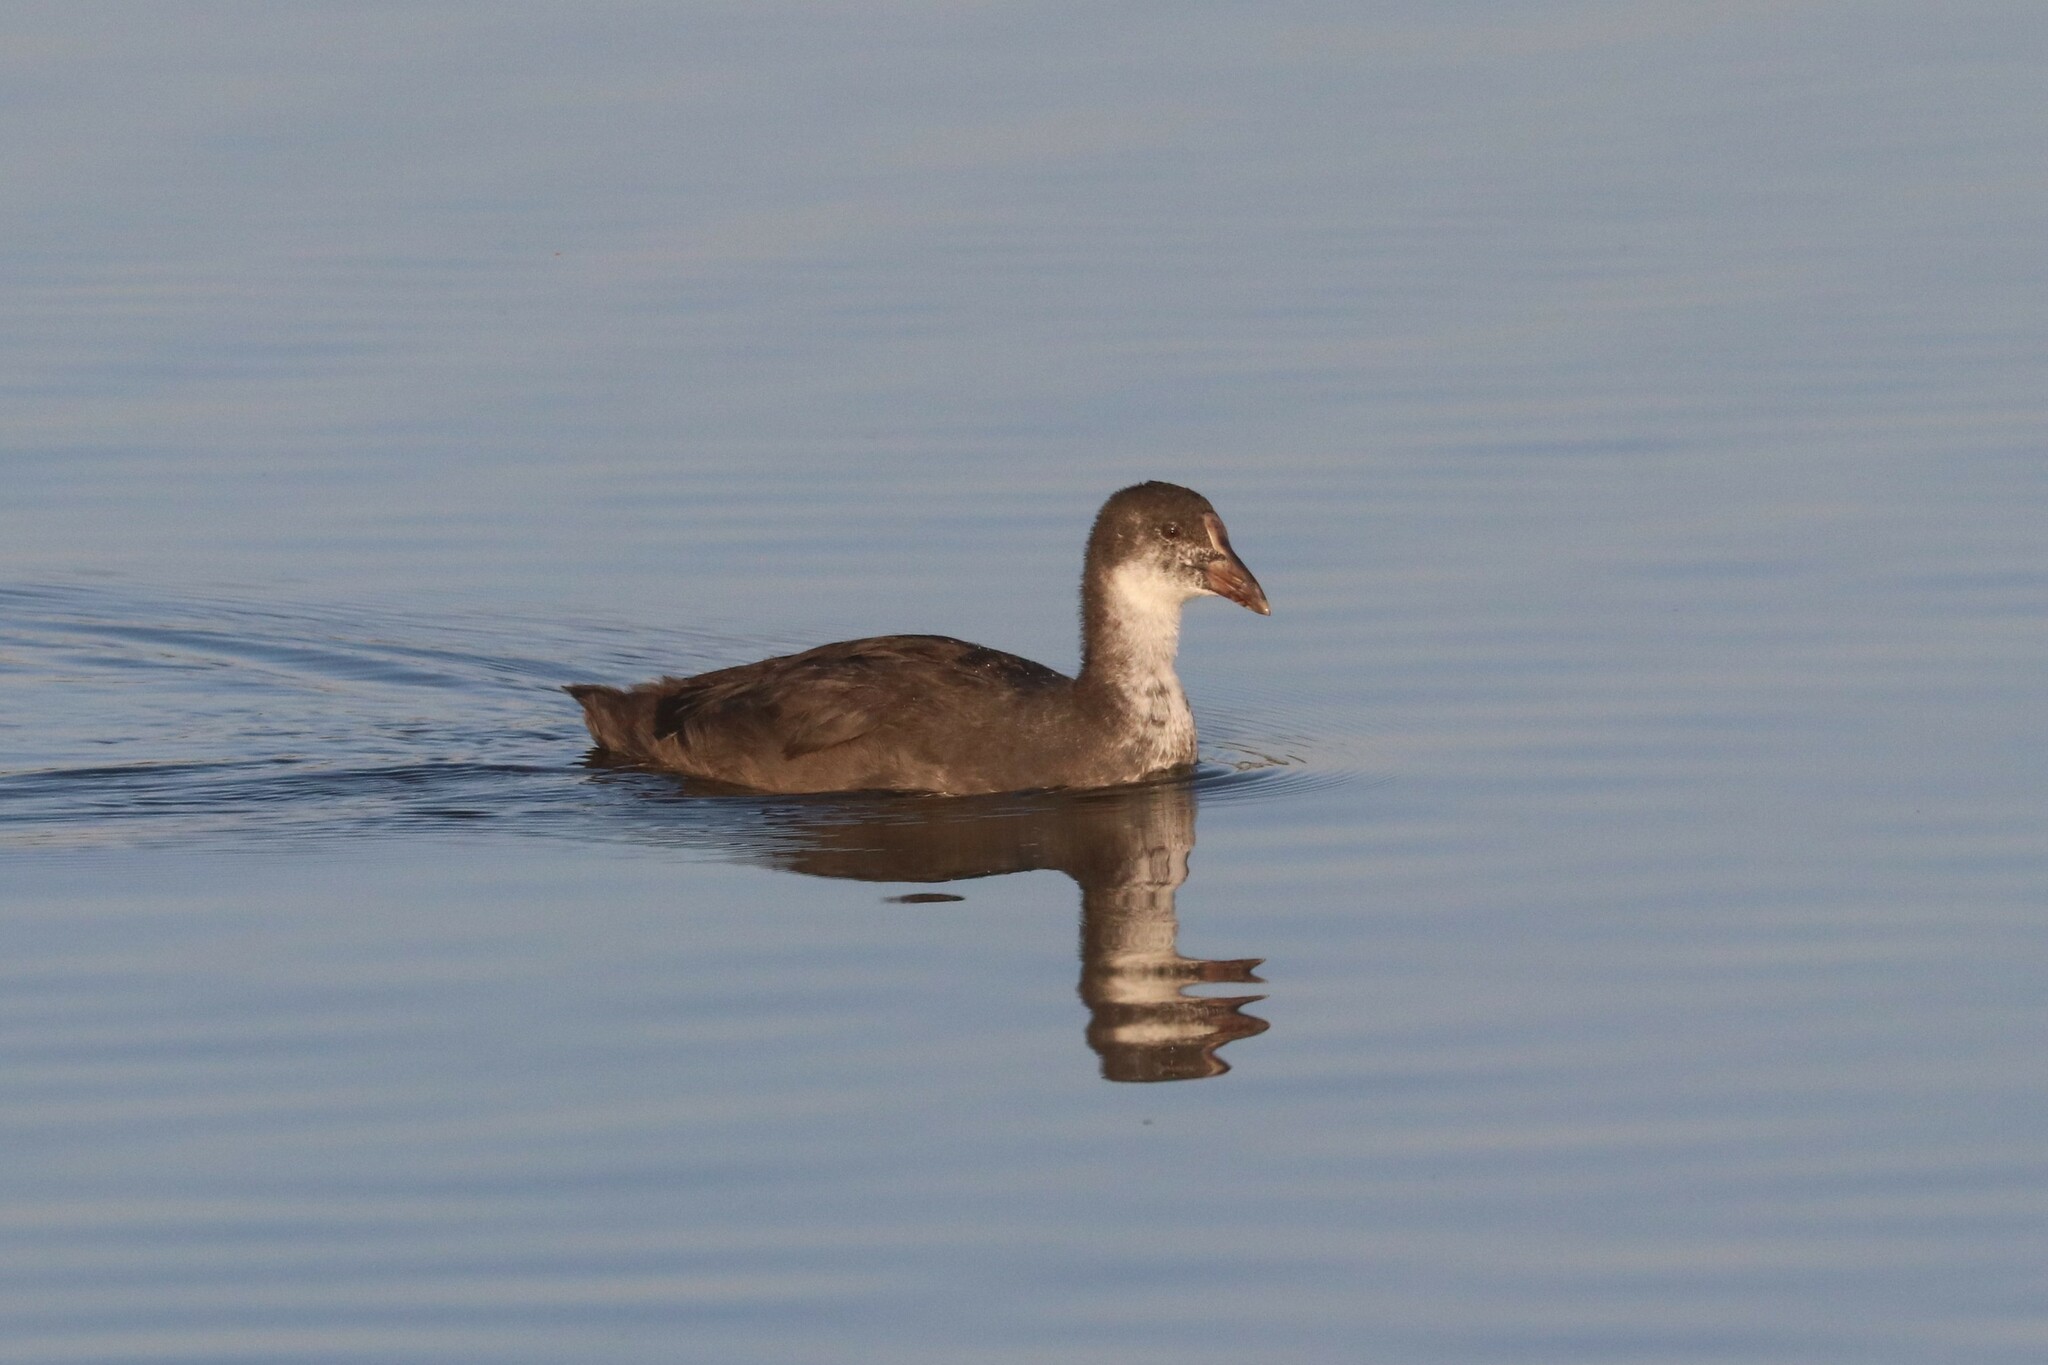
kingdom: Animalia
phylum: Chordata
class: Aves
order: Gruiformes
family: Rallidae
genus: Fulica
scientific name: Fulica atra
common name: Eurasian coot
